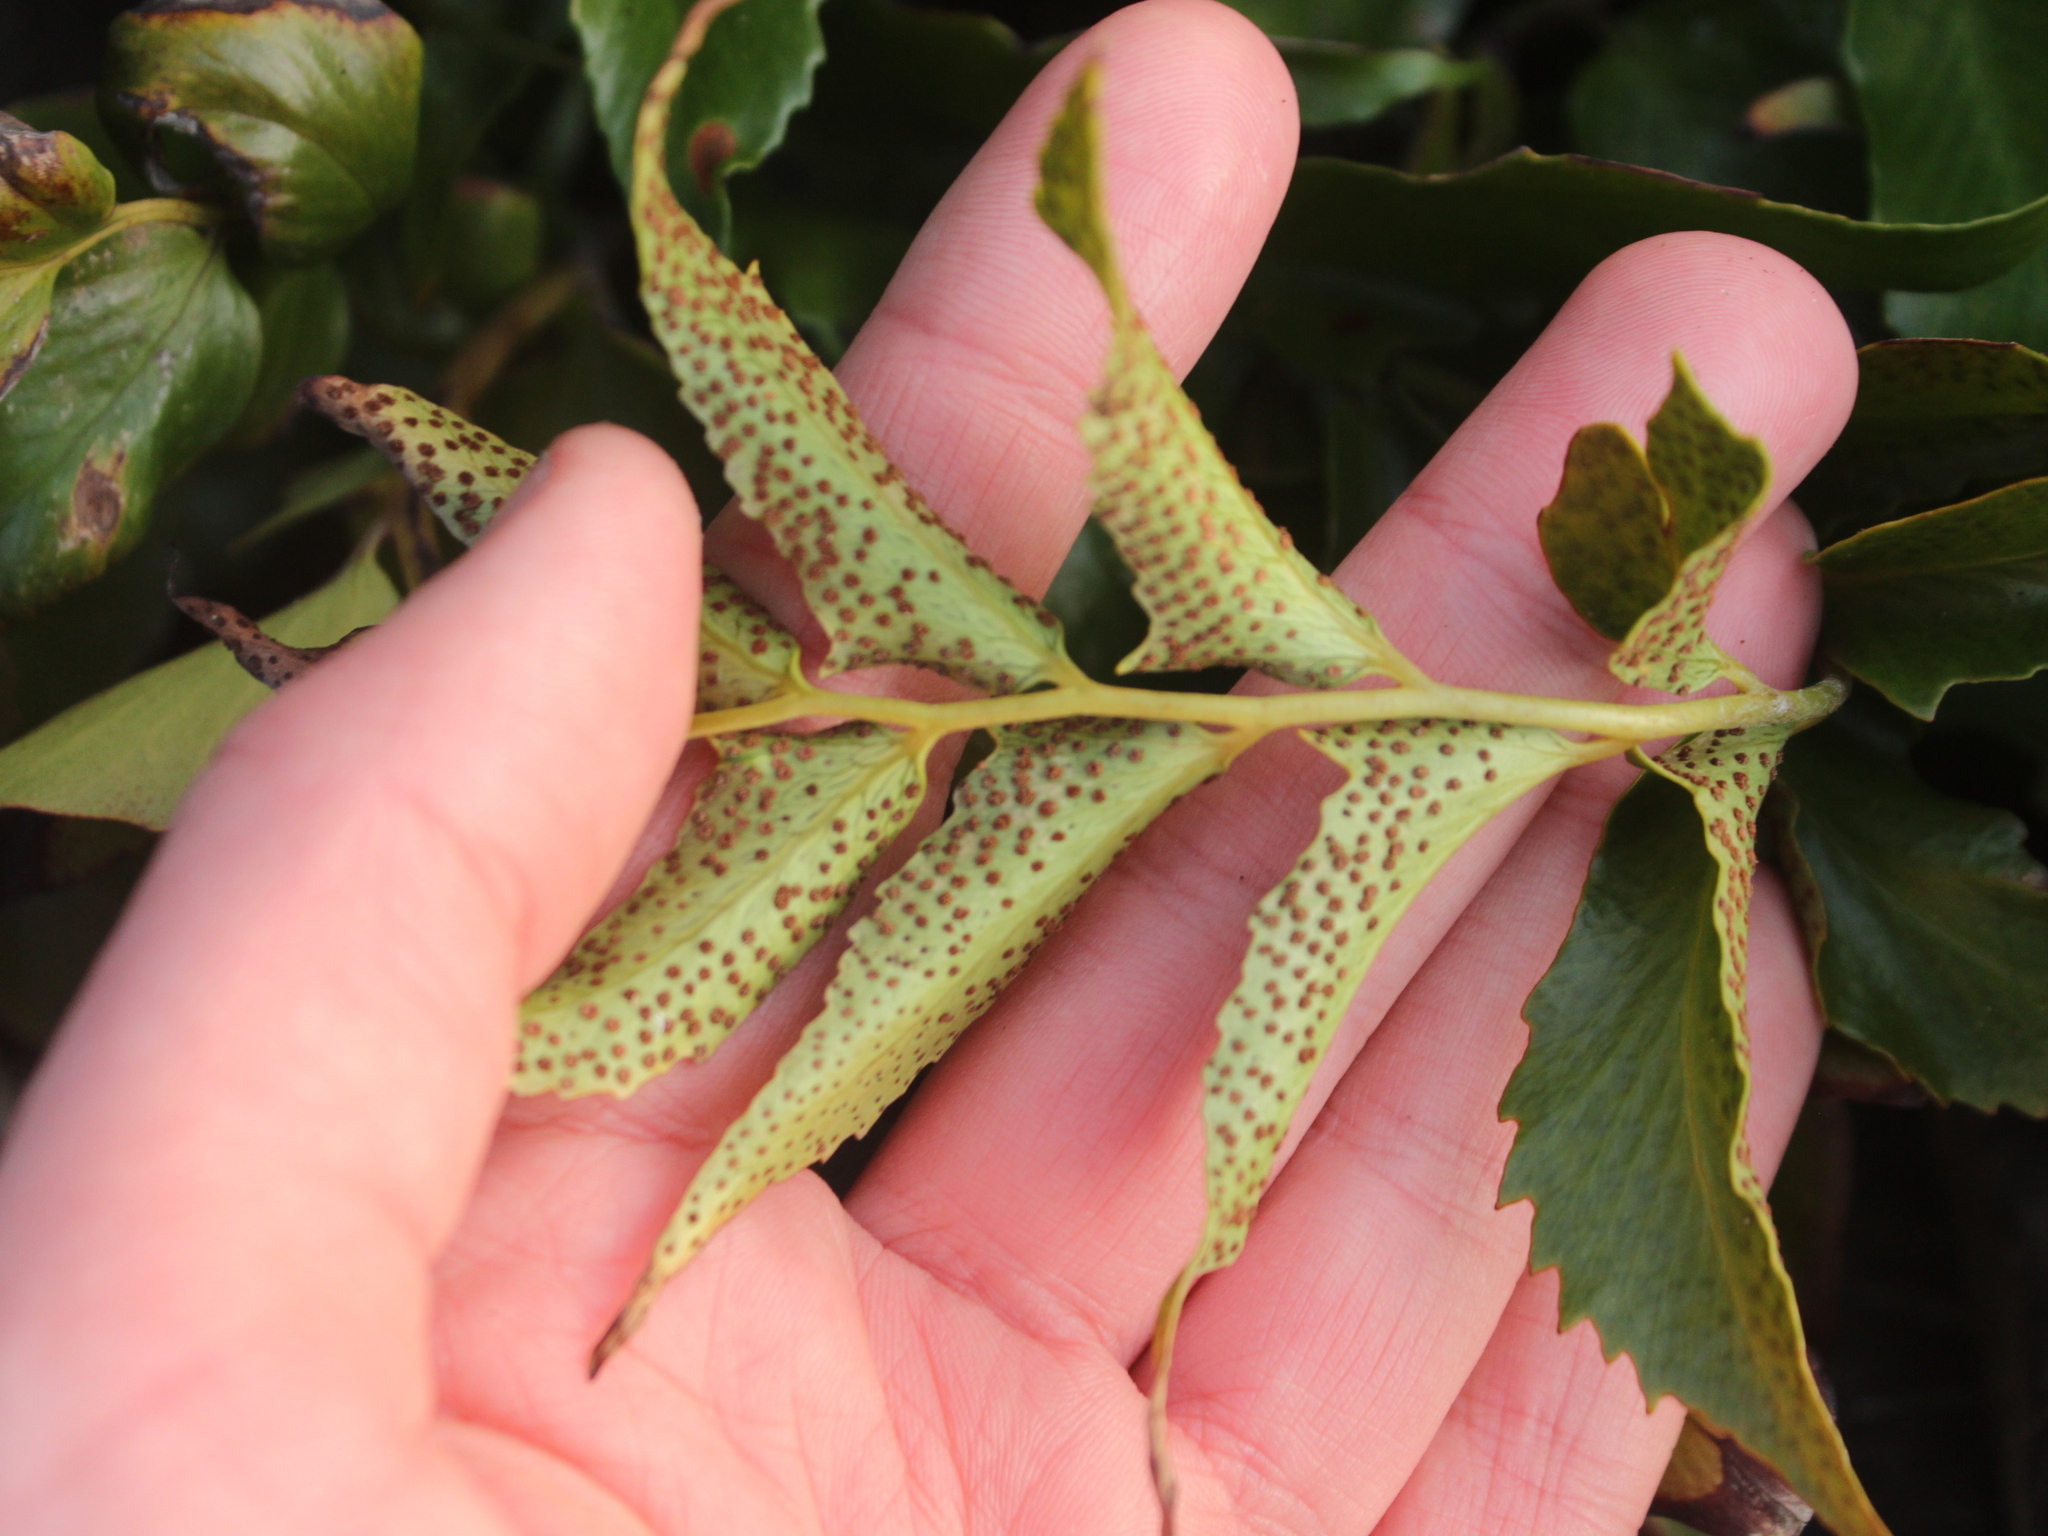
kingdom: Plantae
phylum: Tracheophyta
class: Polypodiopsida
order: Polypodiales
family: Dryopteridaceae
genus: Cyrtomium
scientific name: Cyrtomium falcatum
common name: House holly-fern
